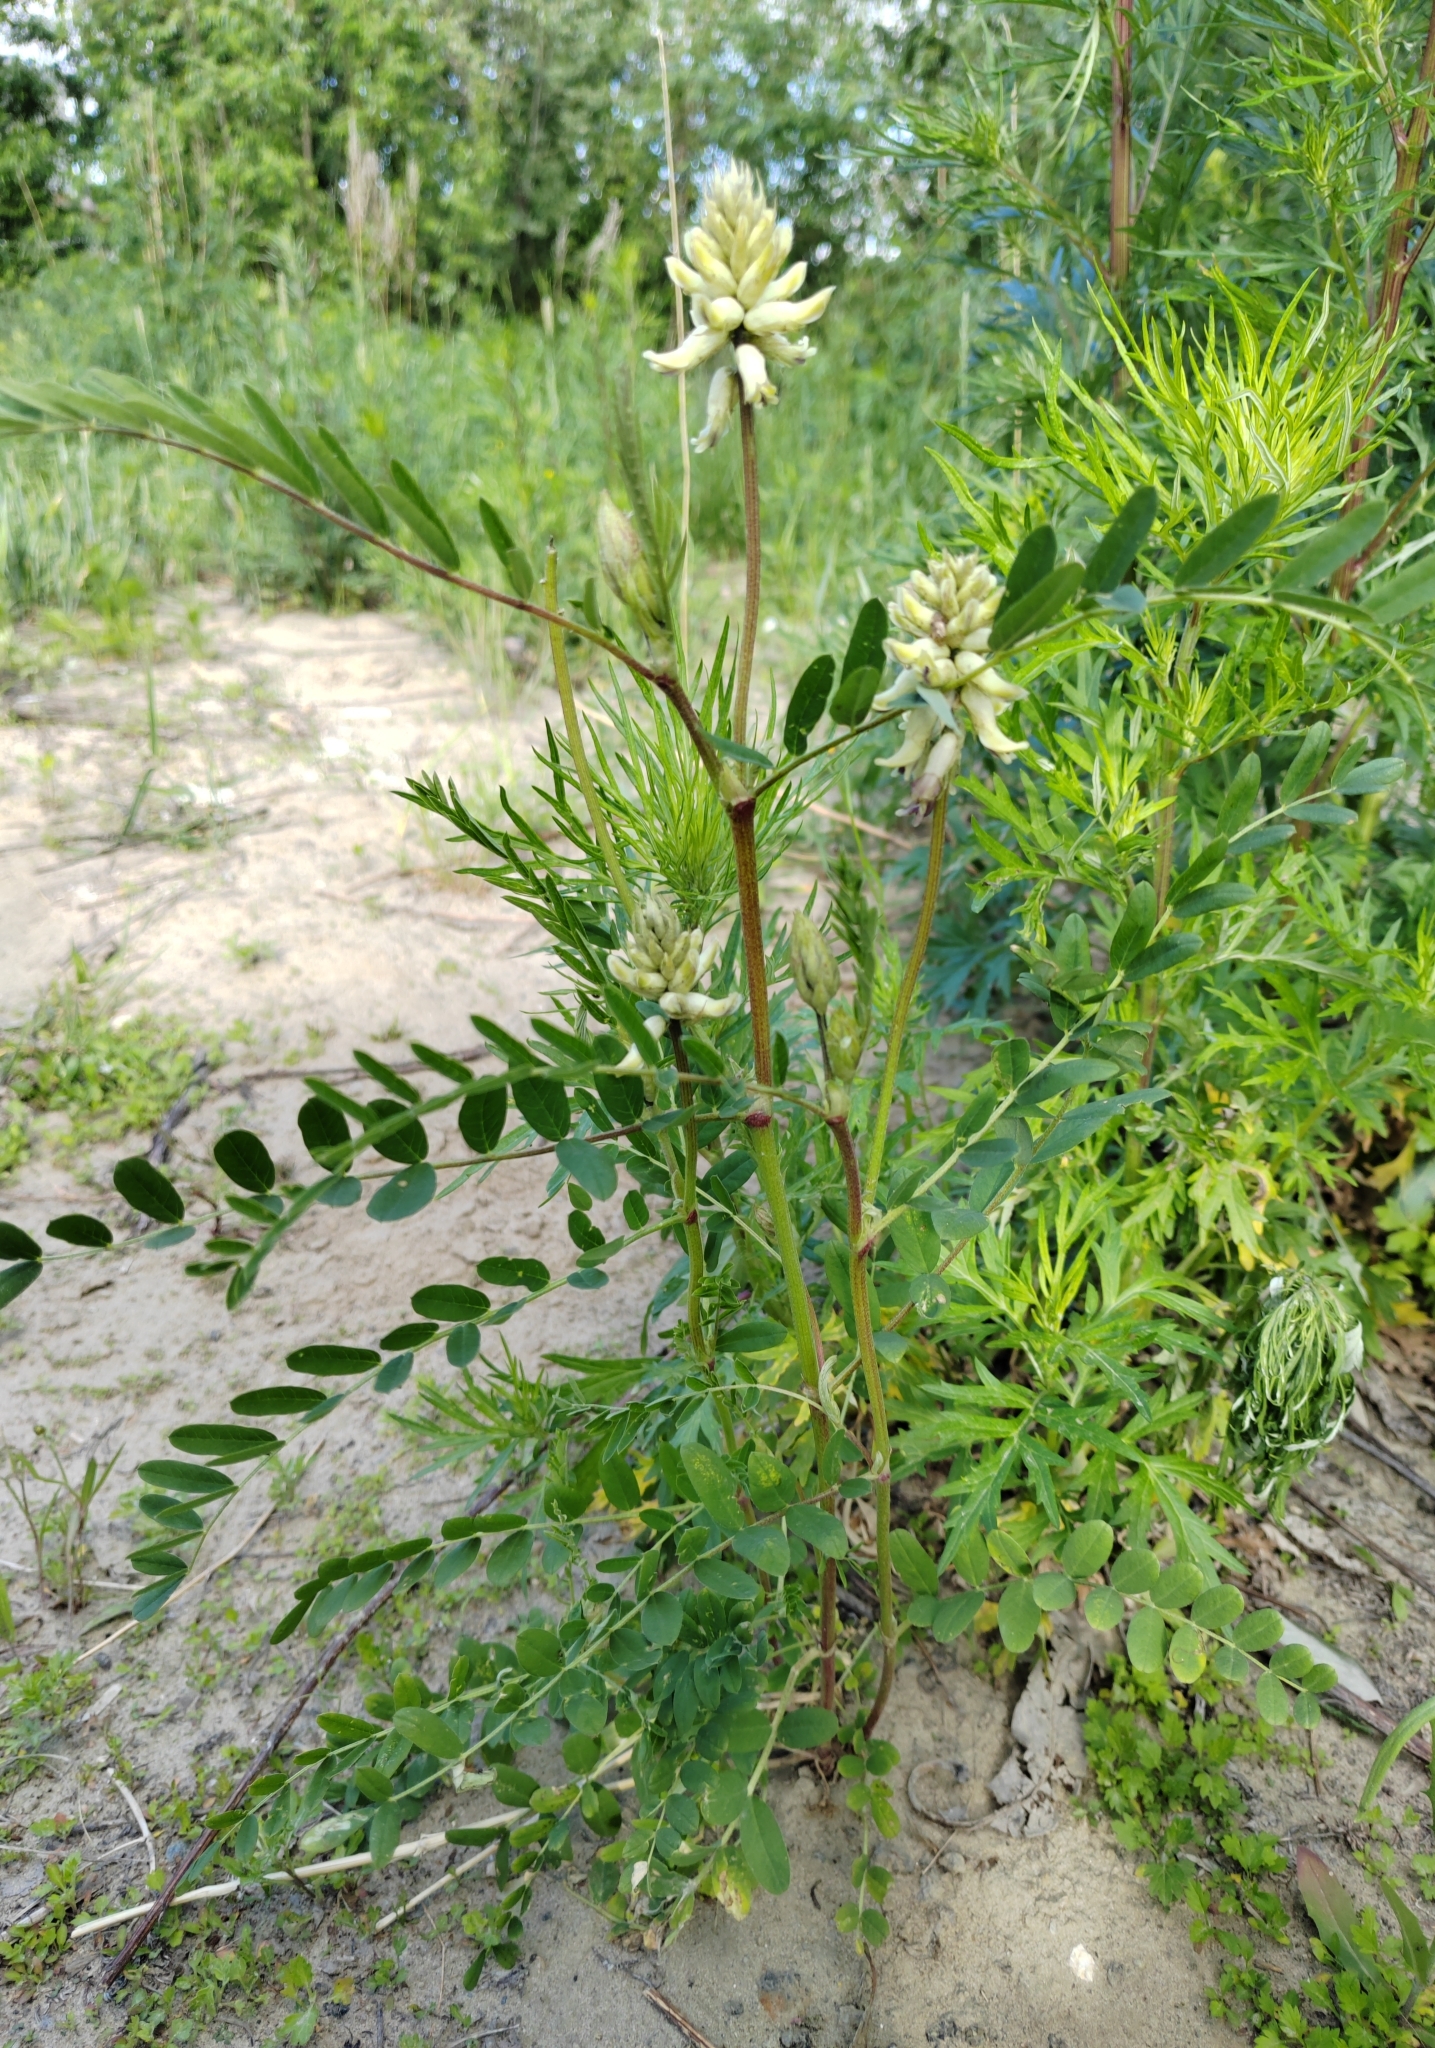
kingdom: Plantae
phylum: Tracheophyta
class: Magnoliopsida
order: Fabales
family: Fabaceae
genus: Astragalus
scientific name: Astragalus uliginosus
